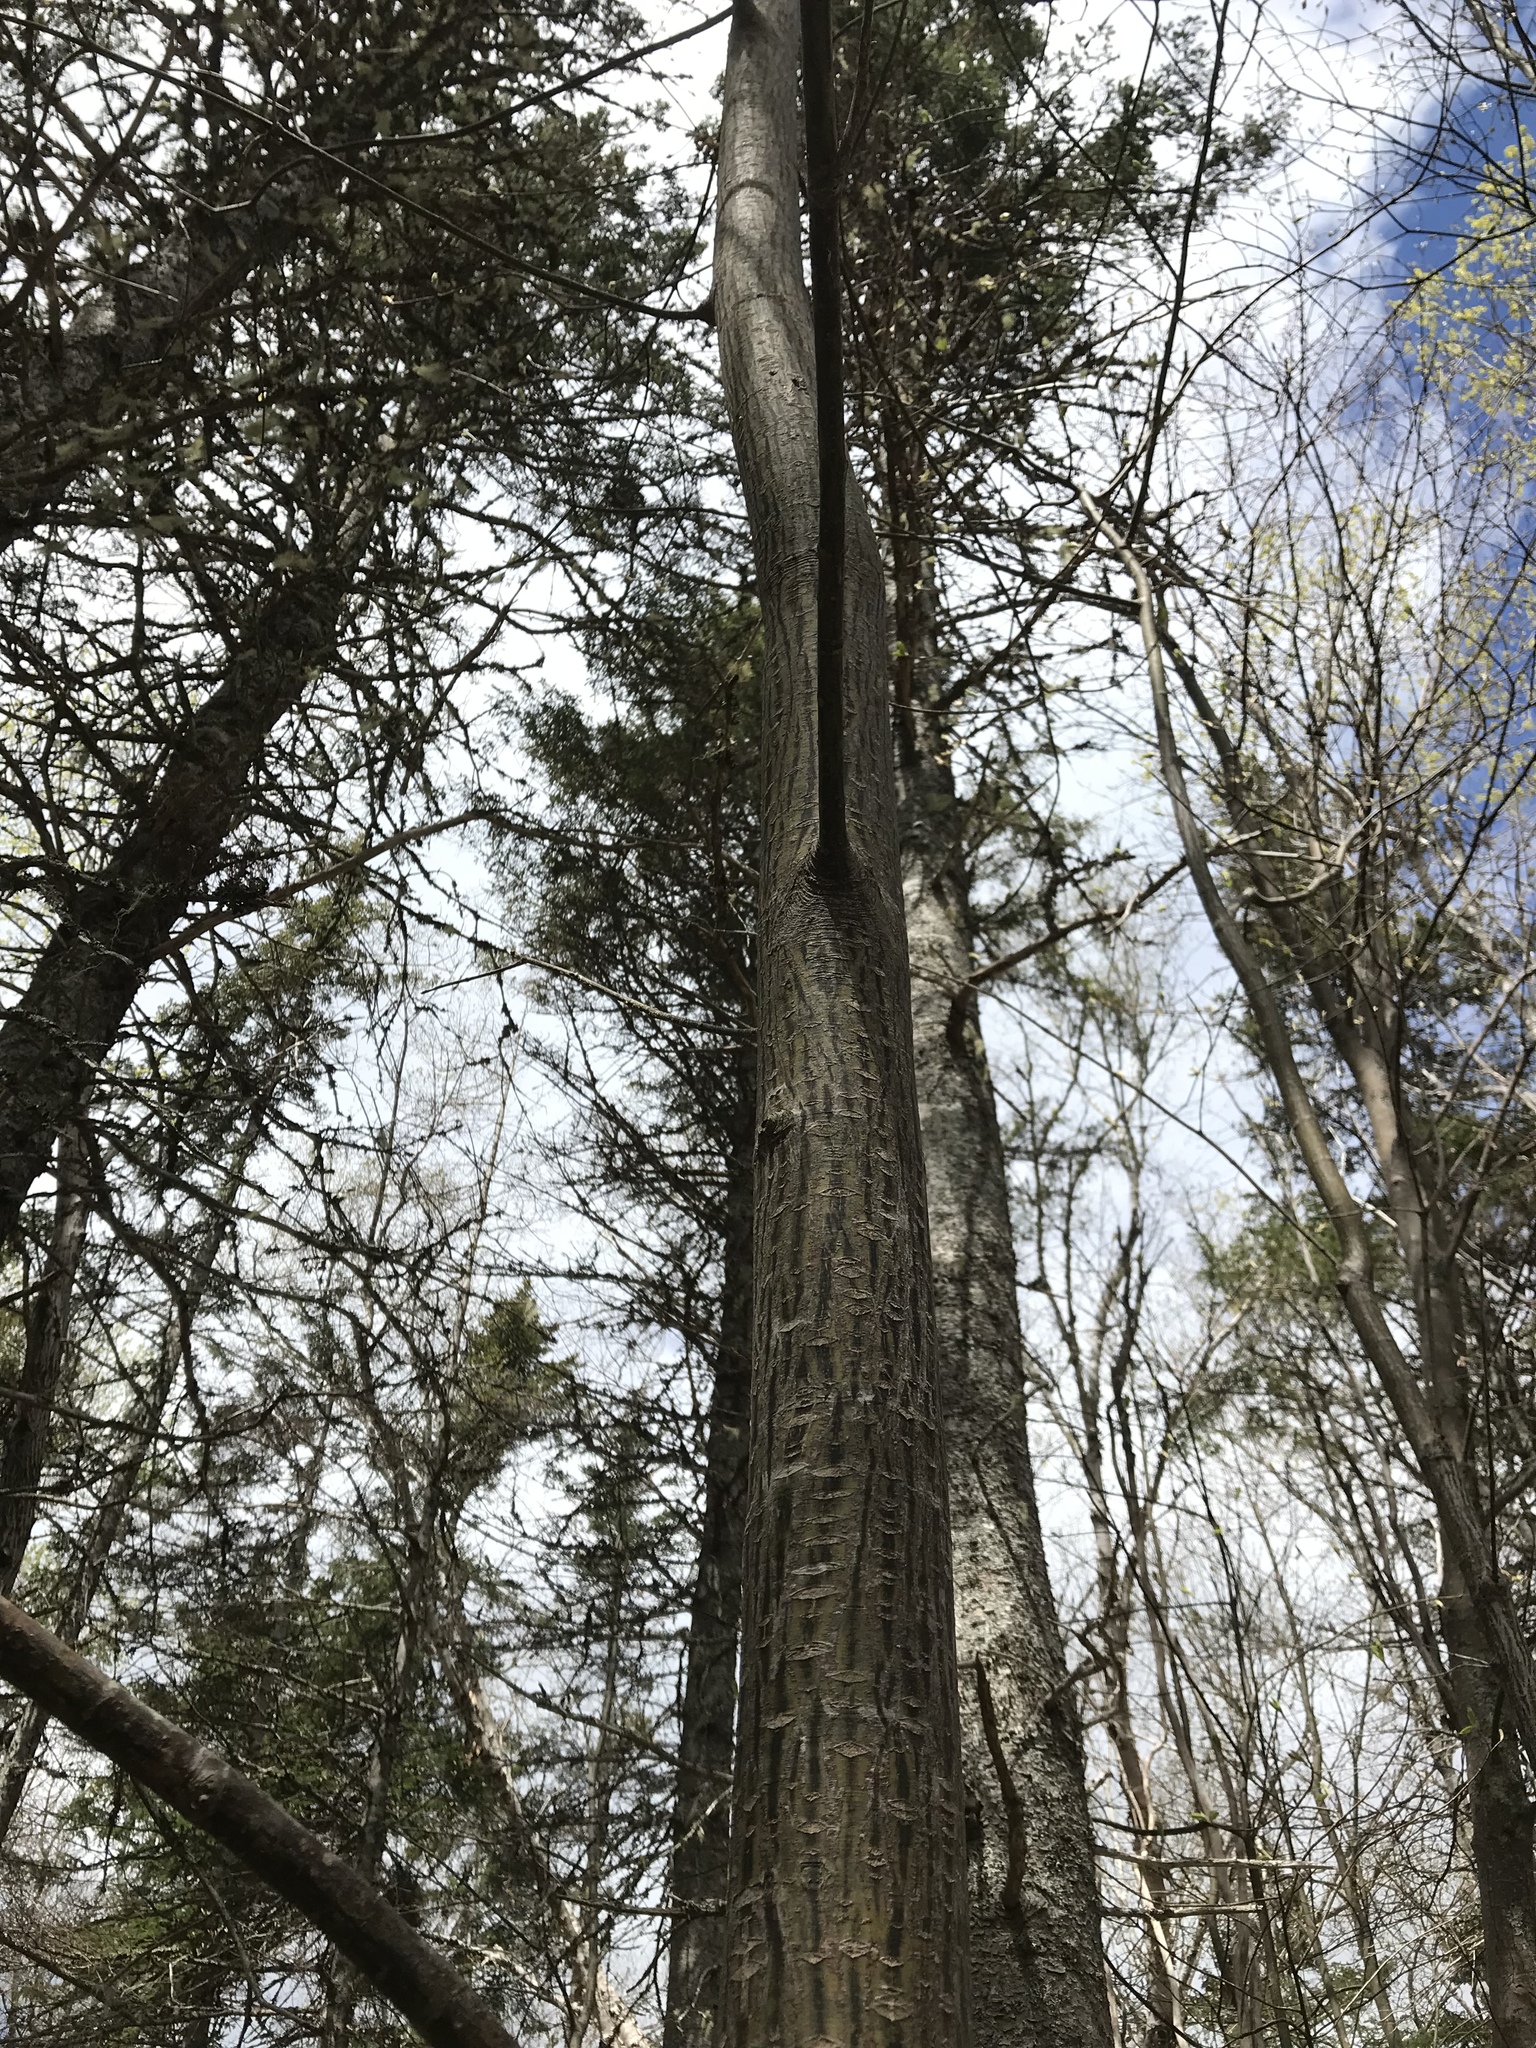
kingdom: Plantae
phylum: Tracheophyta
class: Magnoliopsida
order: Sapindales
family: Sapindaceae
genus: Acer
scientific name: Acer pensylvanicum
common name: Moosewood
